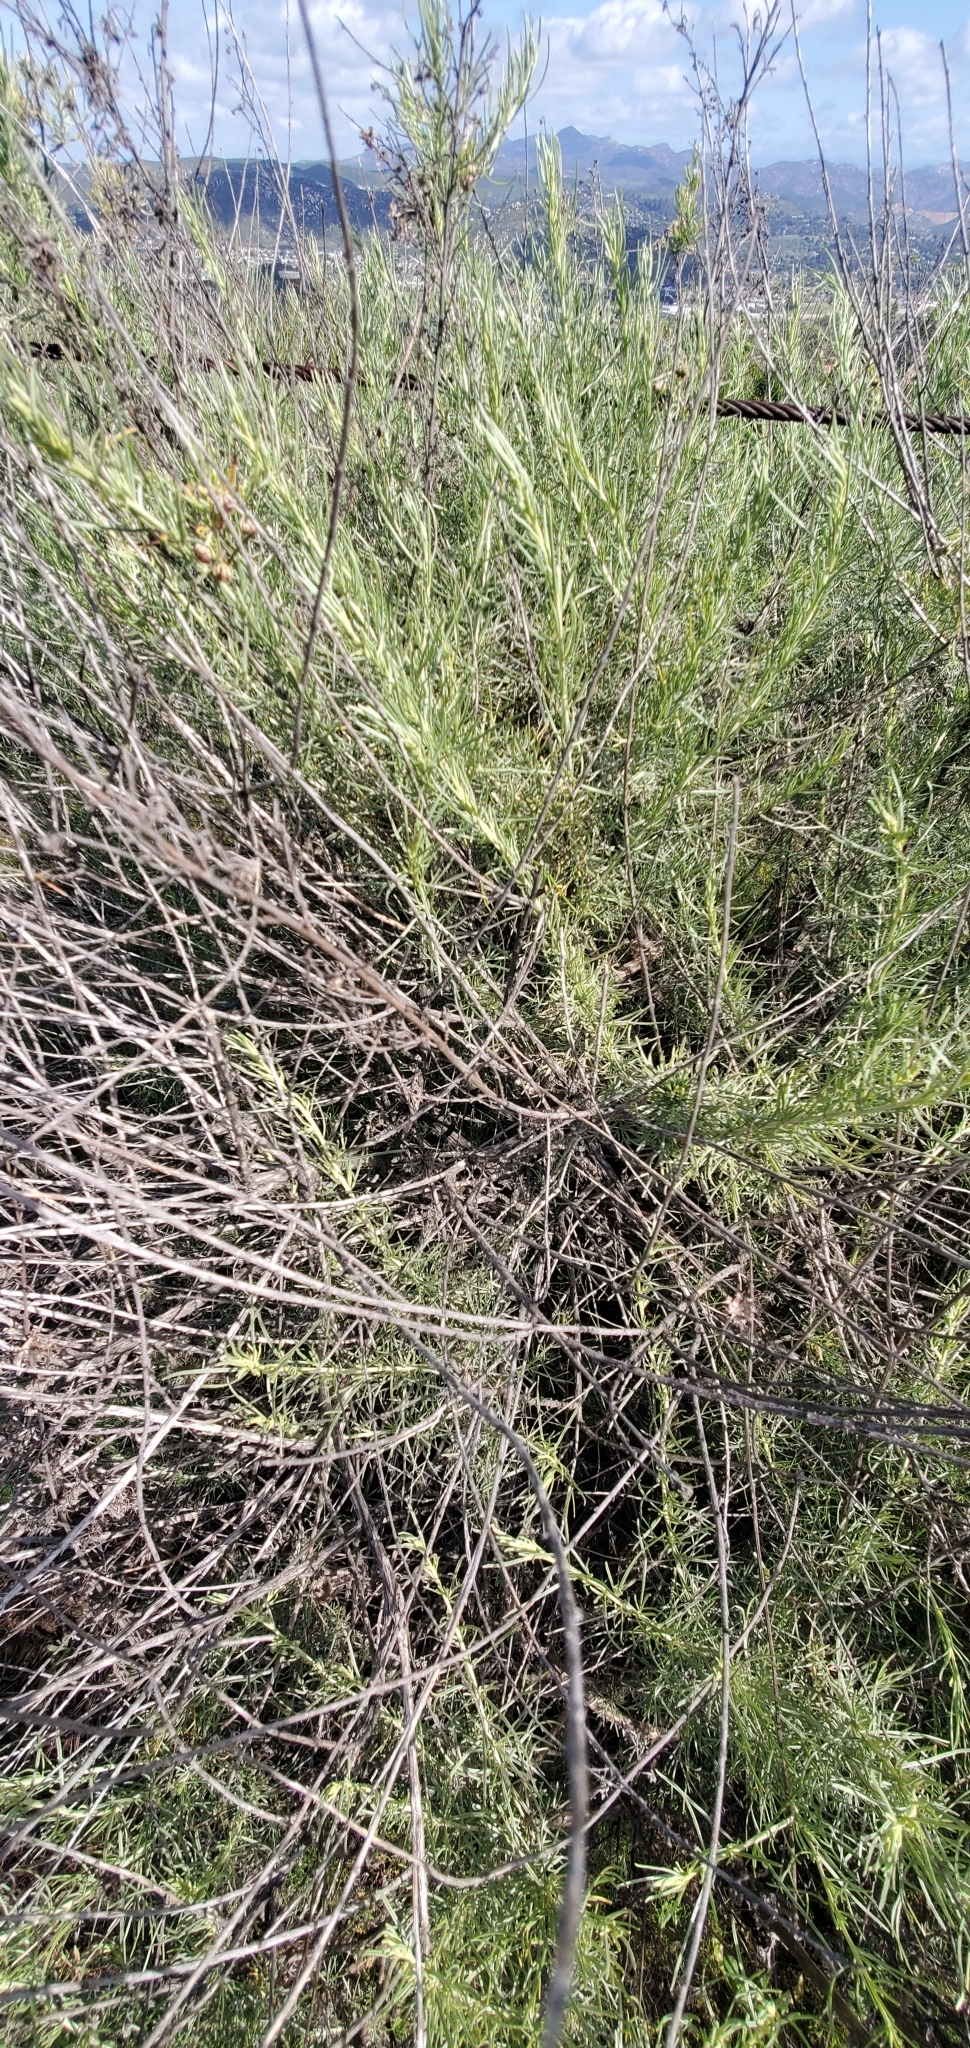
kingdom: Plantae
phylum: Tracheophyta
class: Magnoliopsida
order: Asterales
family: Asteraceae
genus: Artemisia
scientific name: Artemisia californica
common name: California sagebrush
